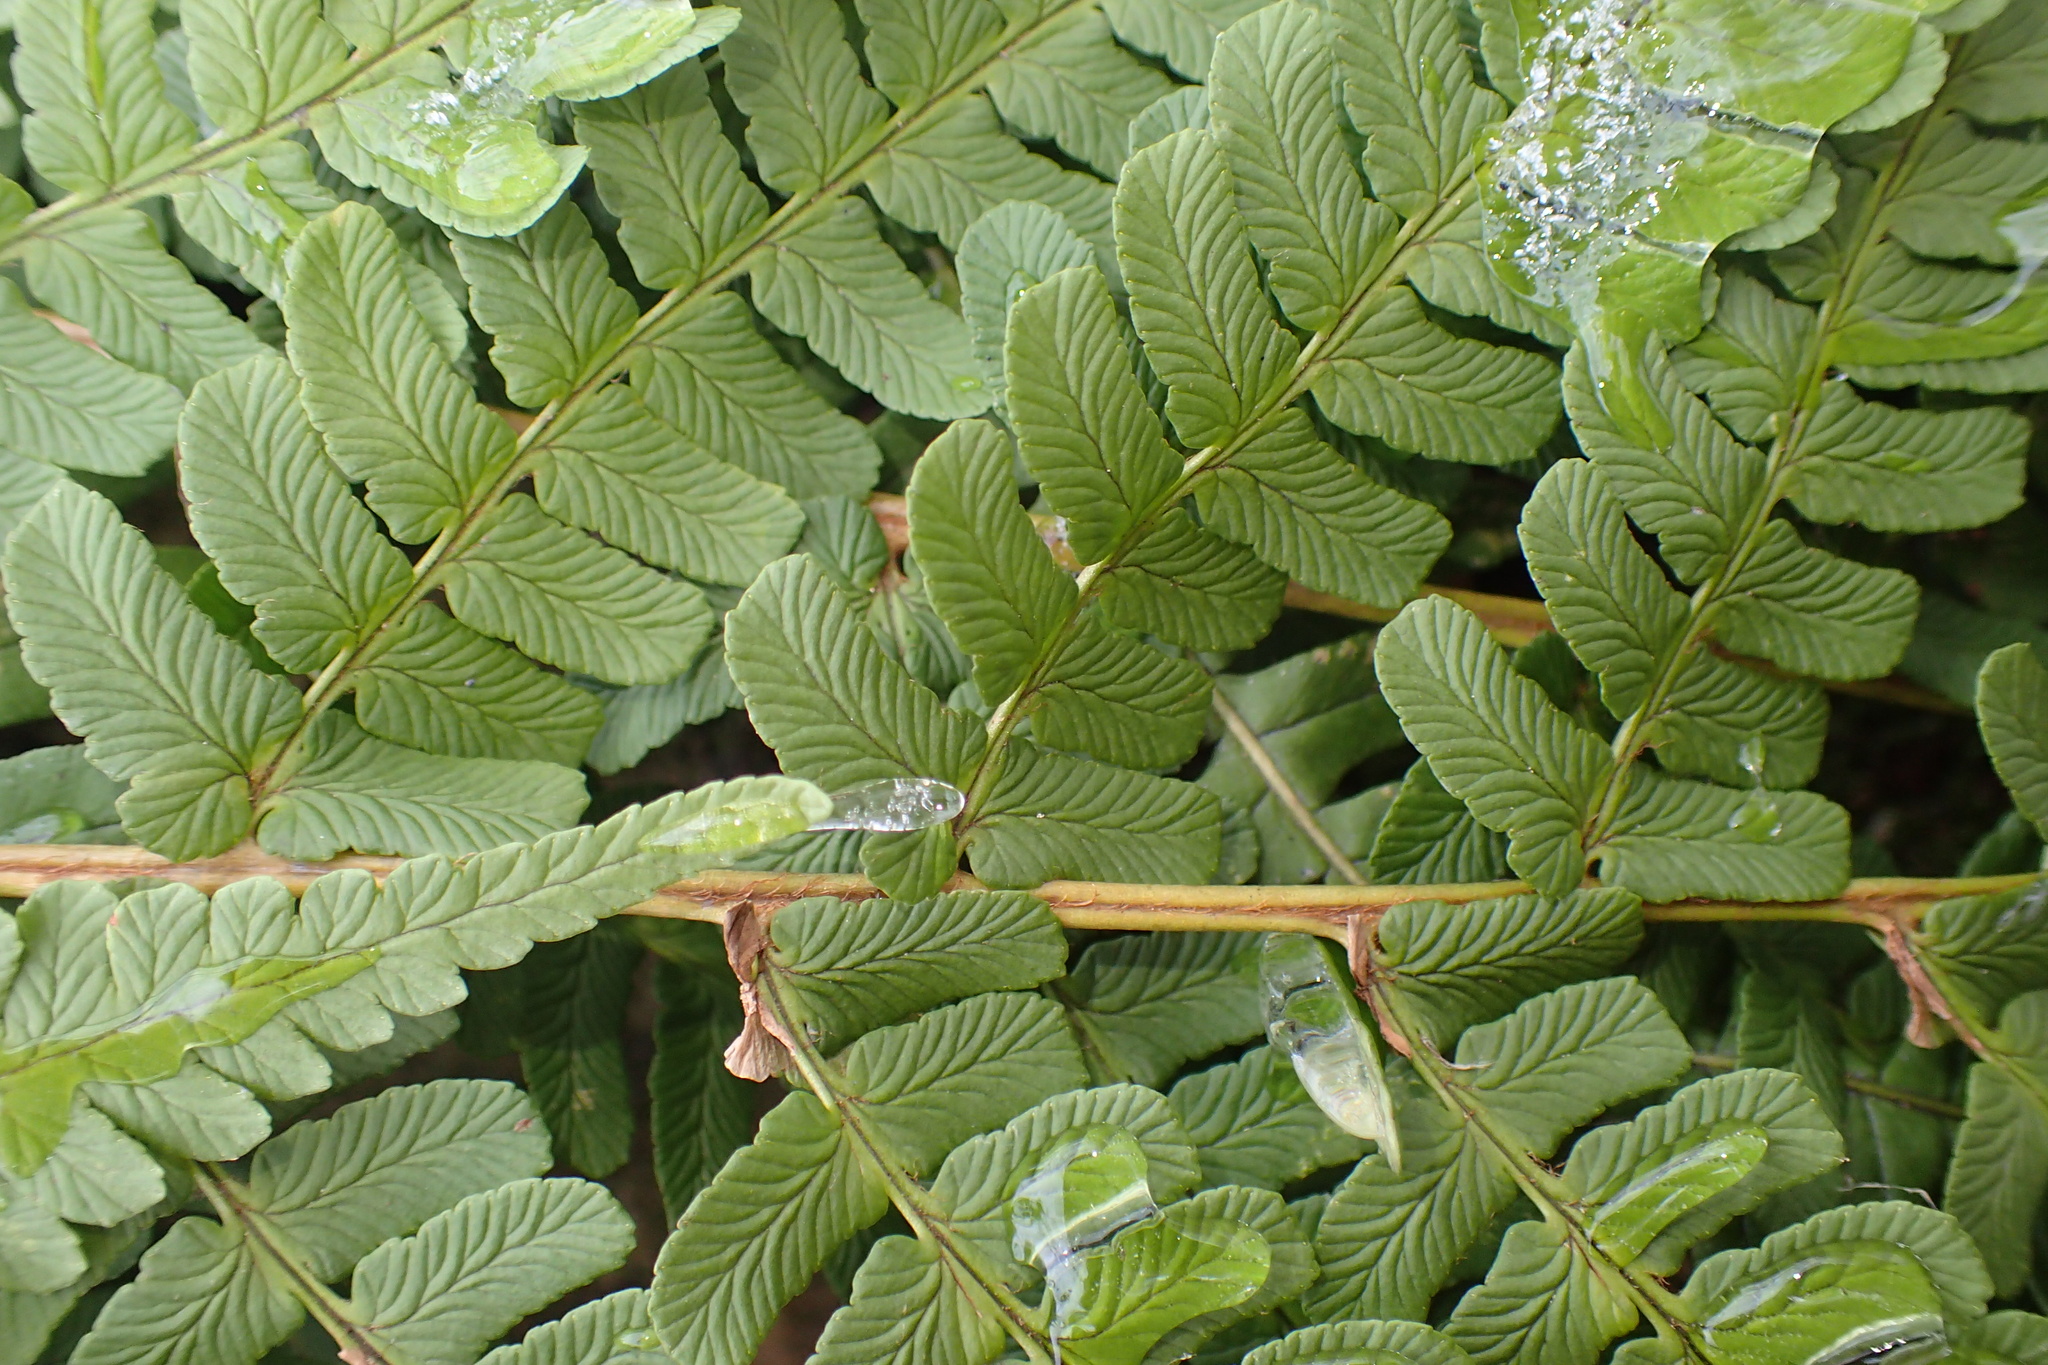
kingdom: Plantae
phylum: Tracheophyta
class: Polypodiopsida
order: Polypodiales
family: Dryopteridaceae
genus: Dryopteris
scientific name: Dryopteris marginalis
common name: Marginal wood fern
